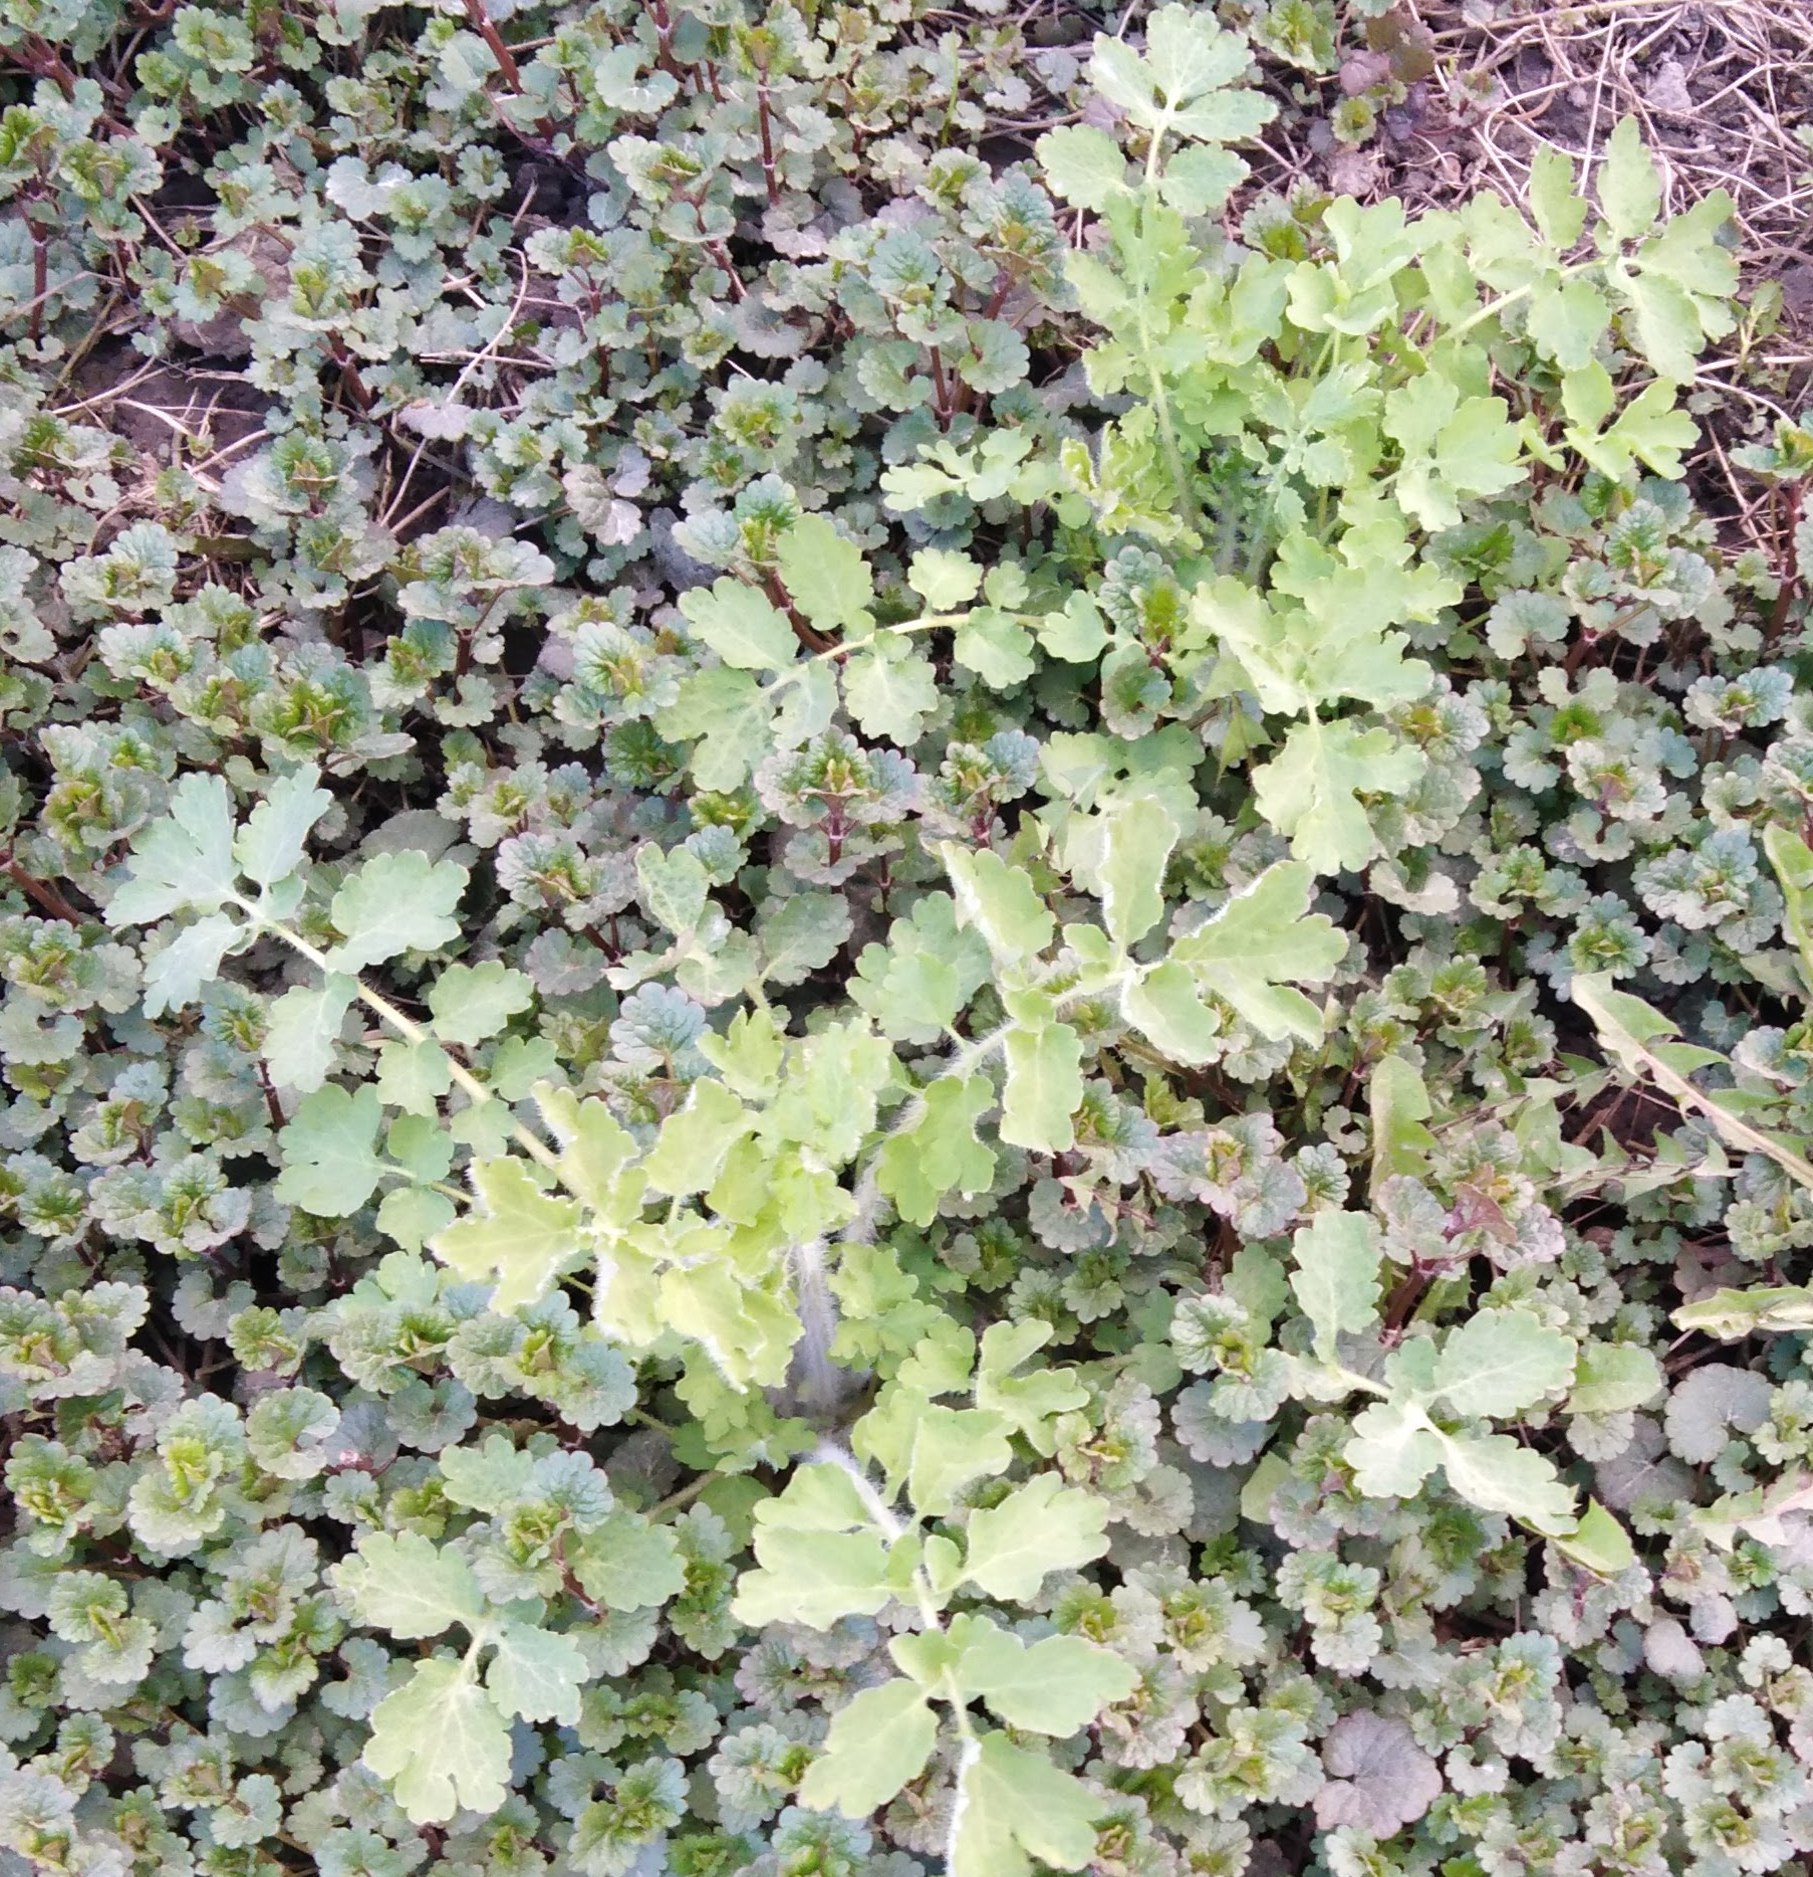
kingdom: Plantae
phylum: Tracheophyta
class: Magnoliopsida
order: Ranunculales
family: Papaveraceae
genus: Chelidonium
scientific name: Chelidonium majus
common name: Greater celandine
